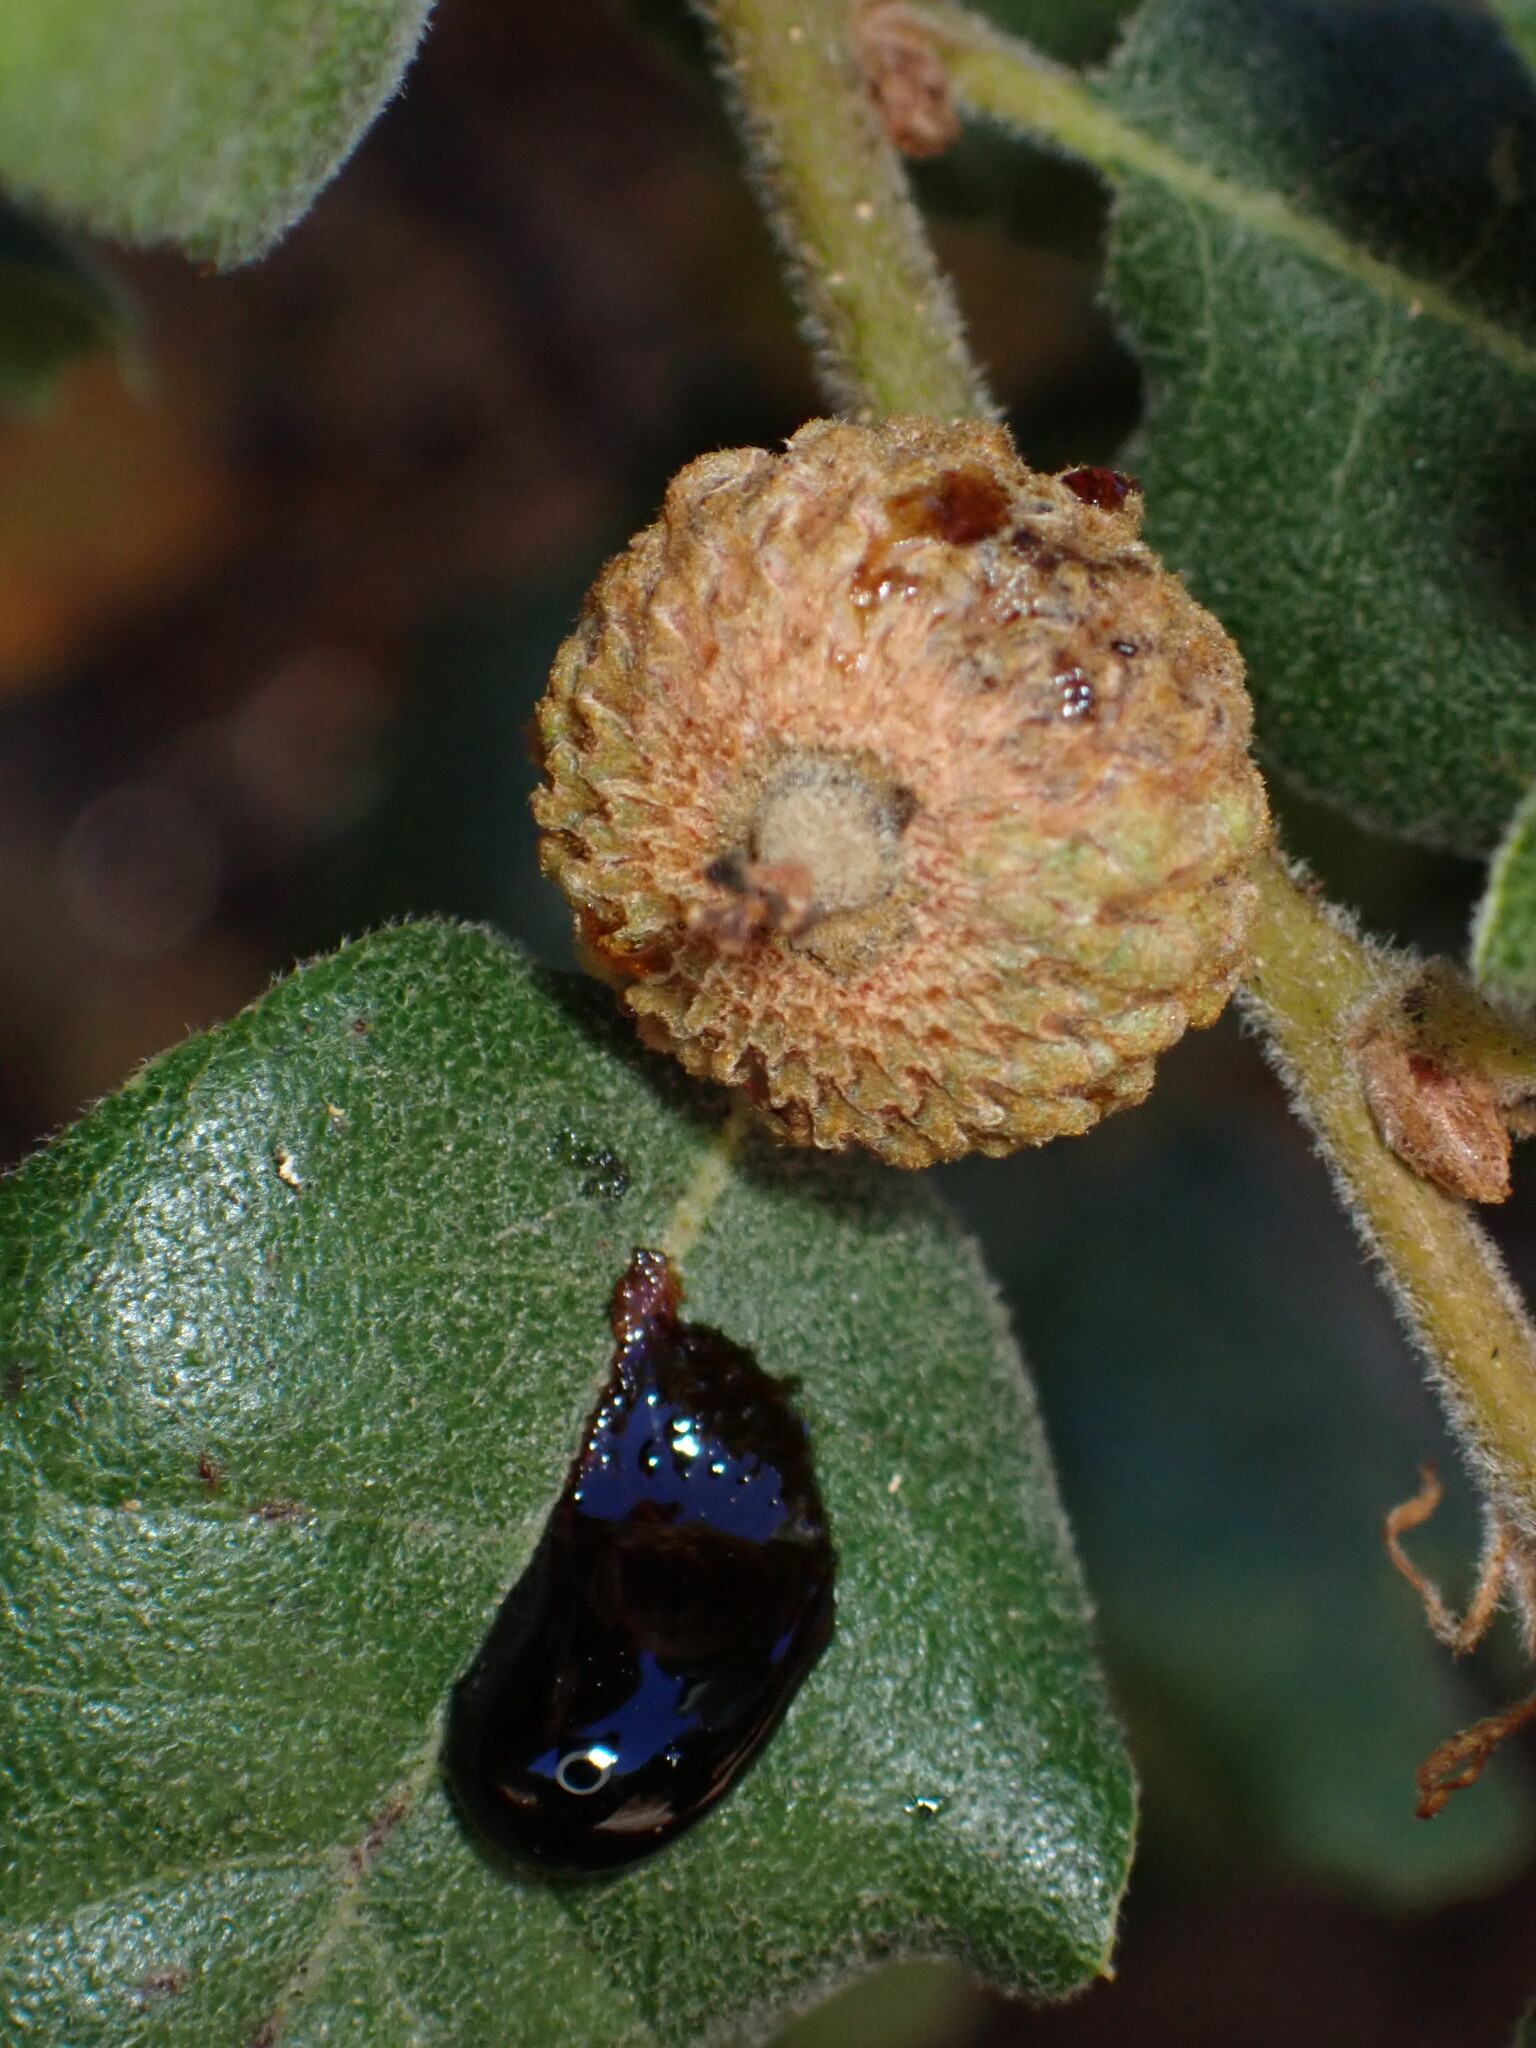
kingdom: Bacteria
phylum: Proteobacteria
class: Gammaproteobacteria
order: Enterobacterales
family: Enterobacteriaceae
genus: Lonsdalea
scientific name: Lonsdalea quercina
